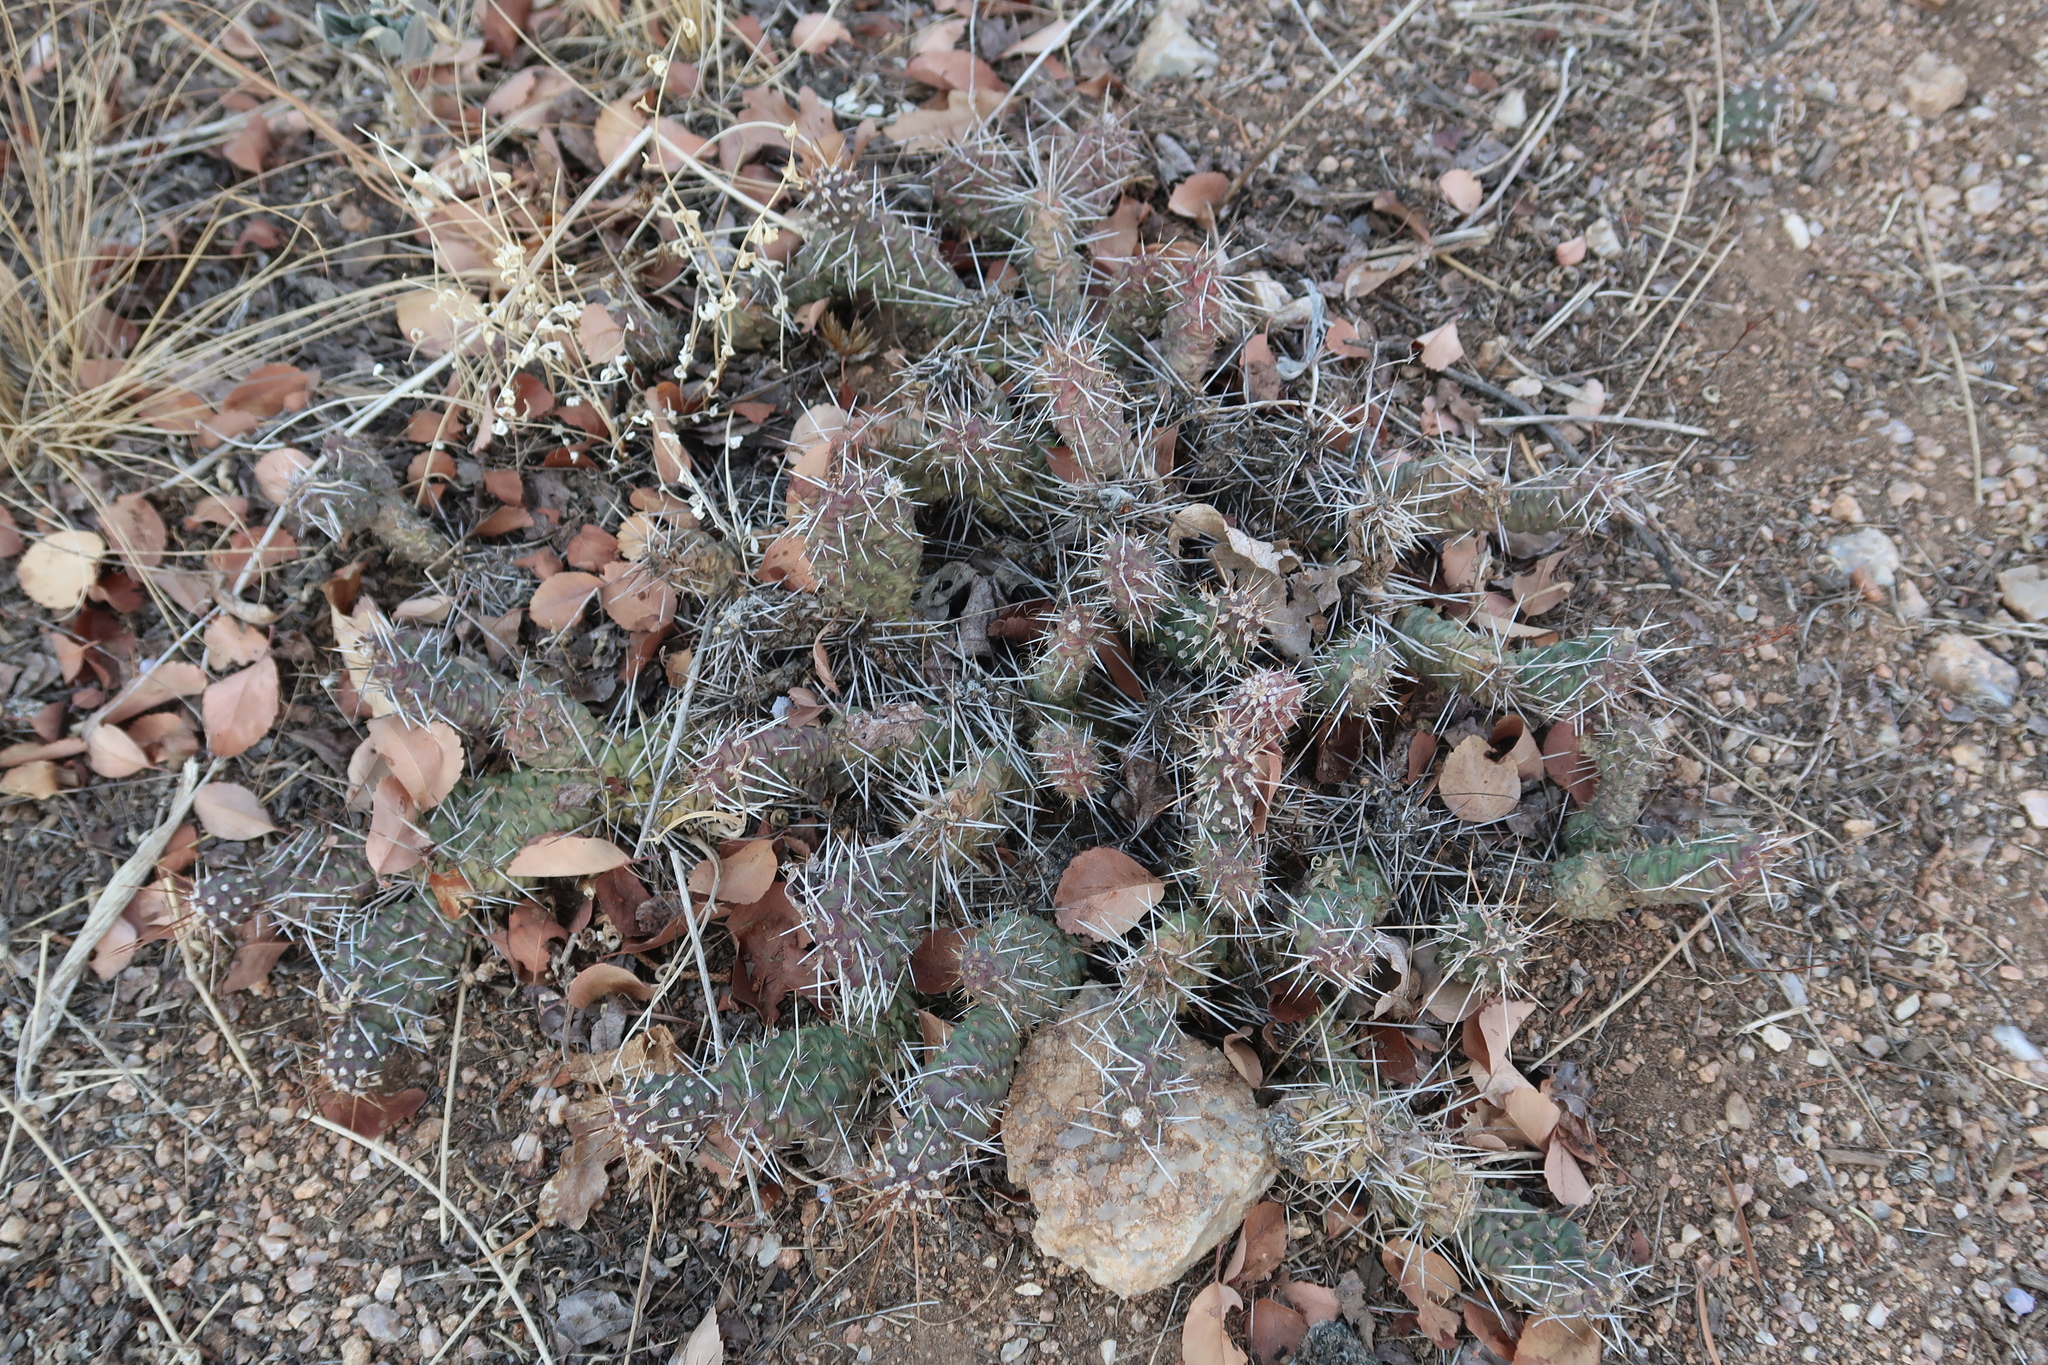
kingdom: Plantae
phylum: Tracheophyta
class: Magnoliopsida
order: Caryophyllales
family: Cactaceae
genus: Opuntia
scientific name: Opuntia fragilis
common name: Brittle cactus
